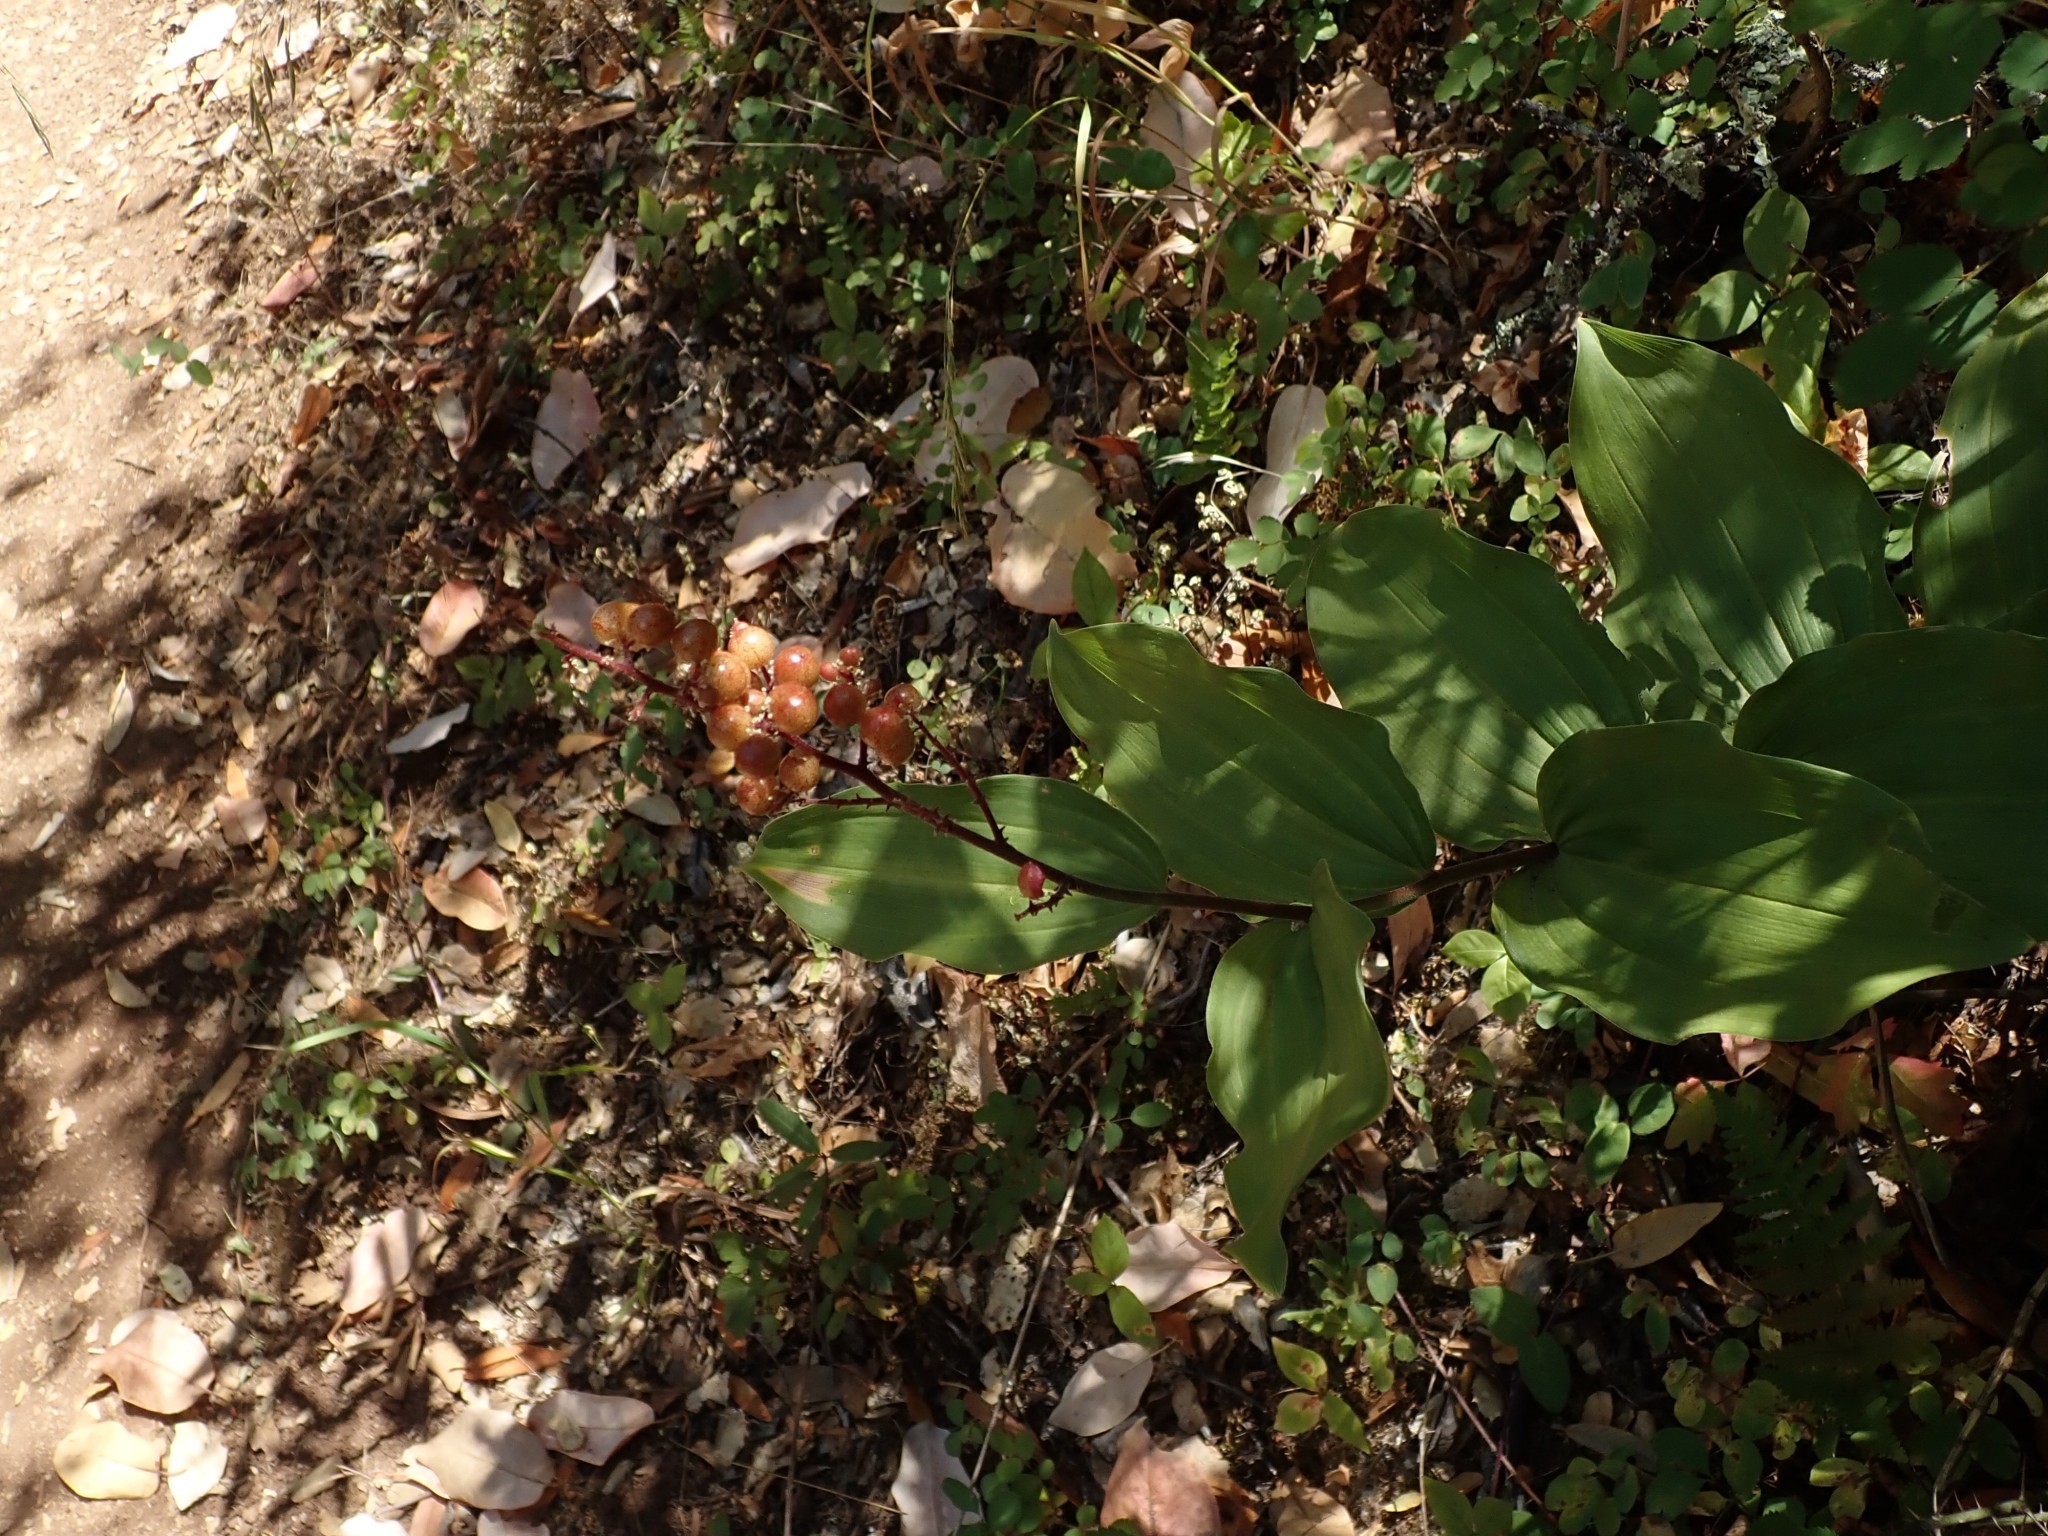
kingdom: Plantae
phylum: Tracheophyta
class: Liliopsida
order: Asparagales
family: Asparagaceae
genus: Maianthemum
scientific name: Maianthemum racemosum
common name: False spikenard
